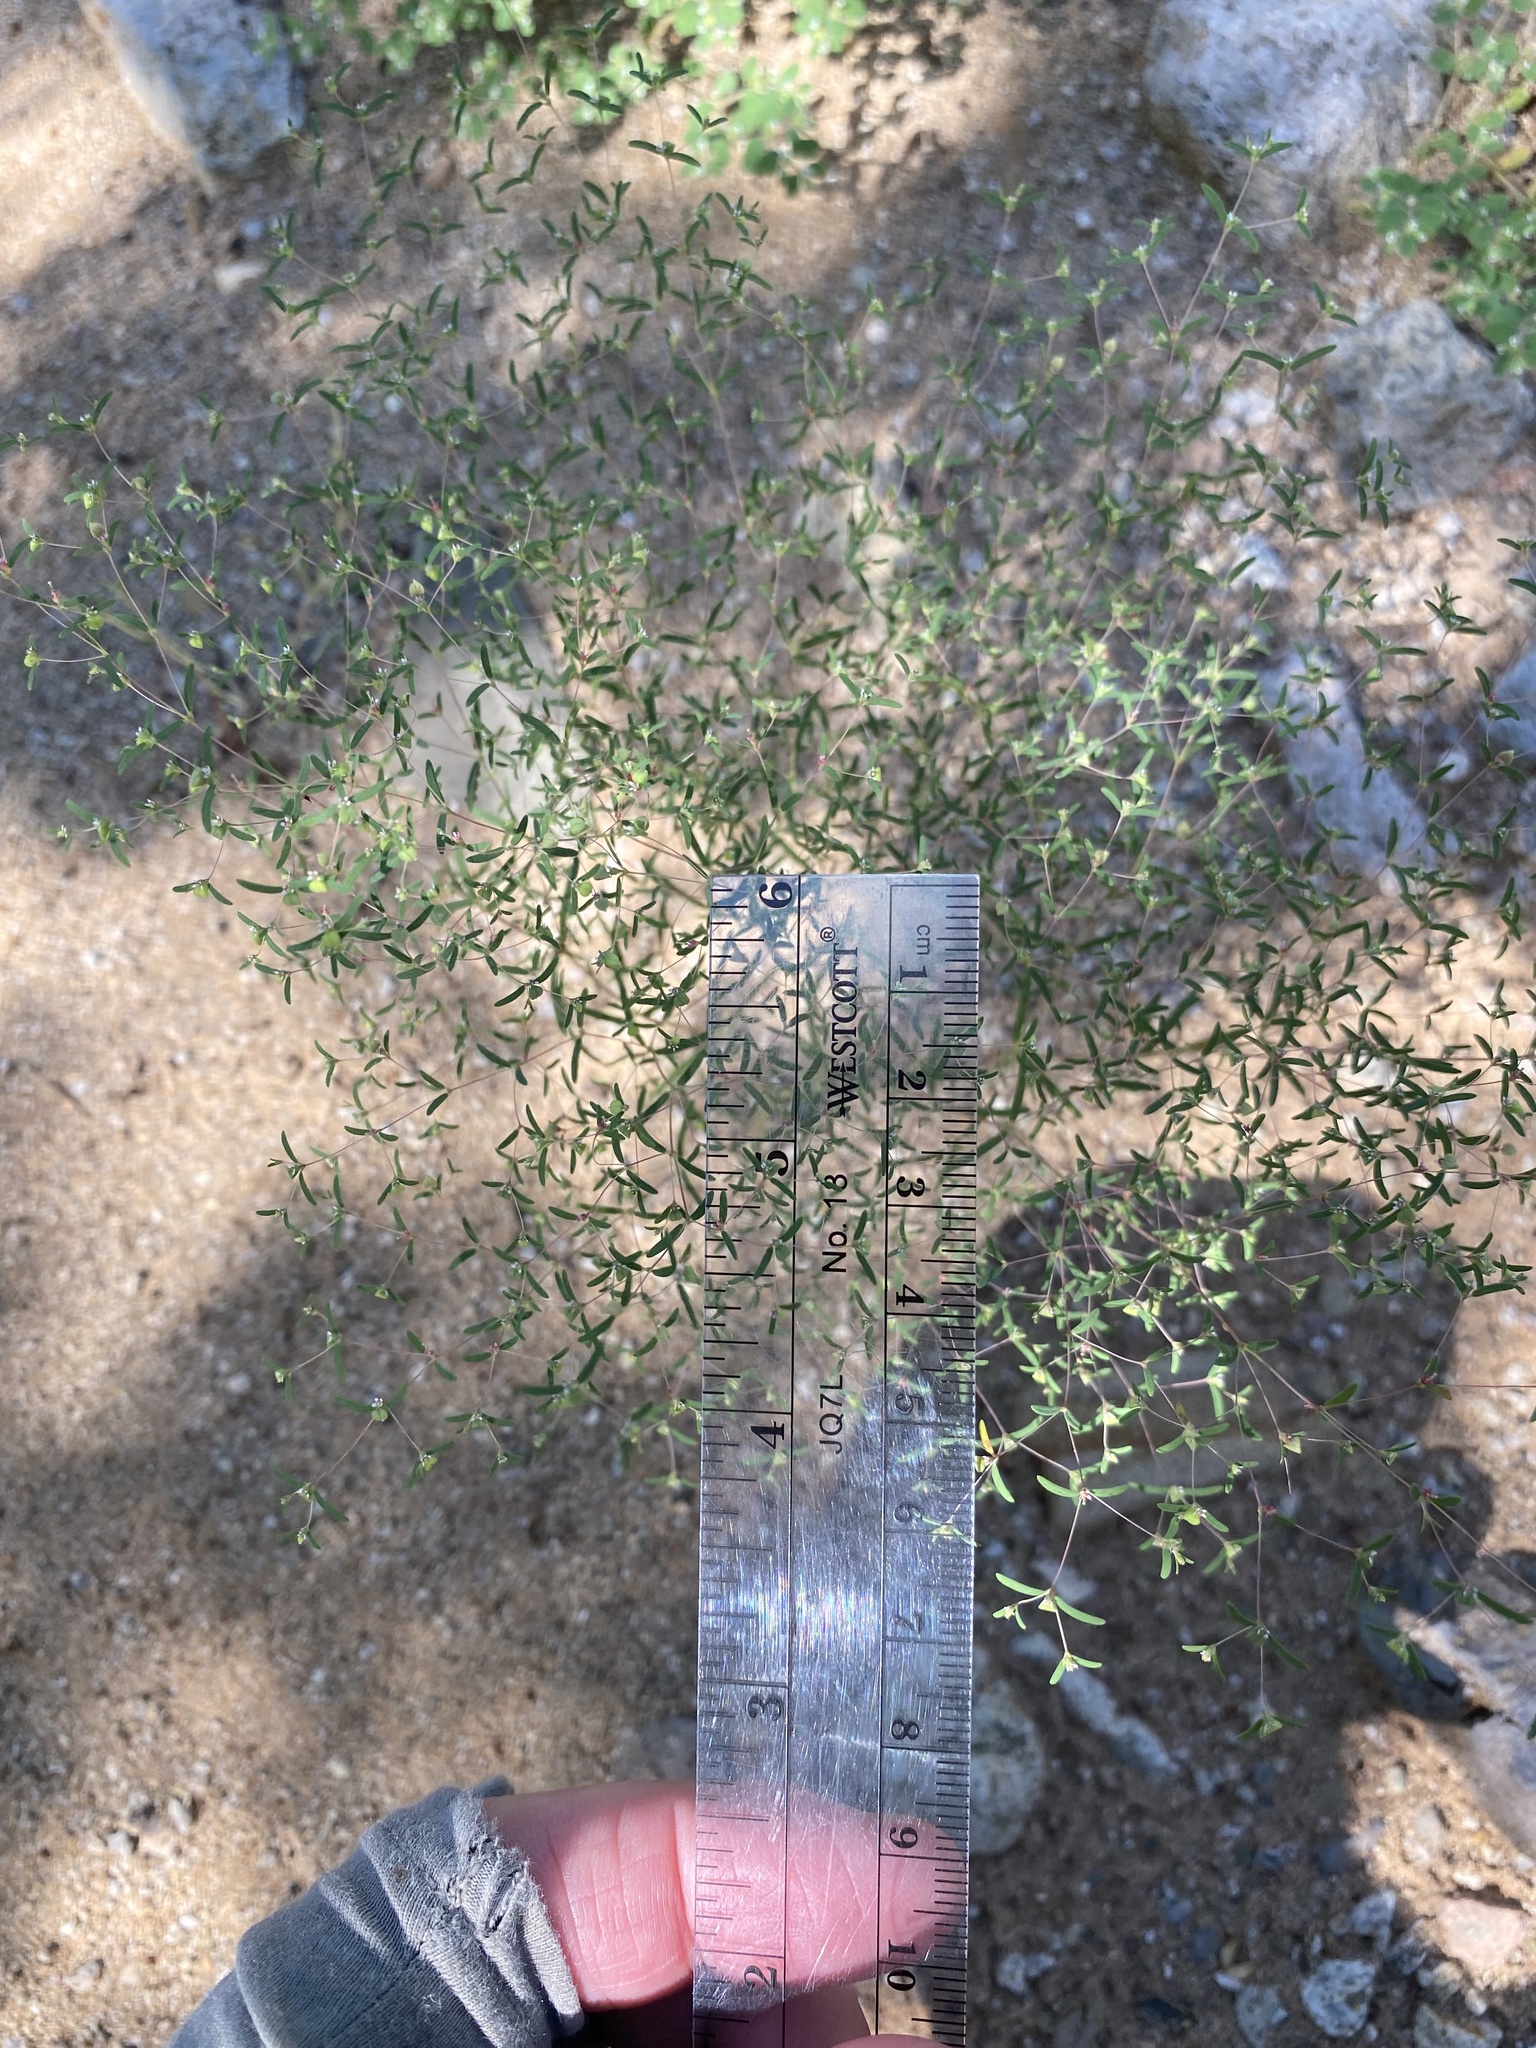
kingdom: Plantae
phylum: Tracheophyta
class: Magnoliopsida
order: Malpighiales
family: Euphorbiaceae
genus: Euphorbia
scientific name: Euphorbia gracillima
